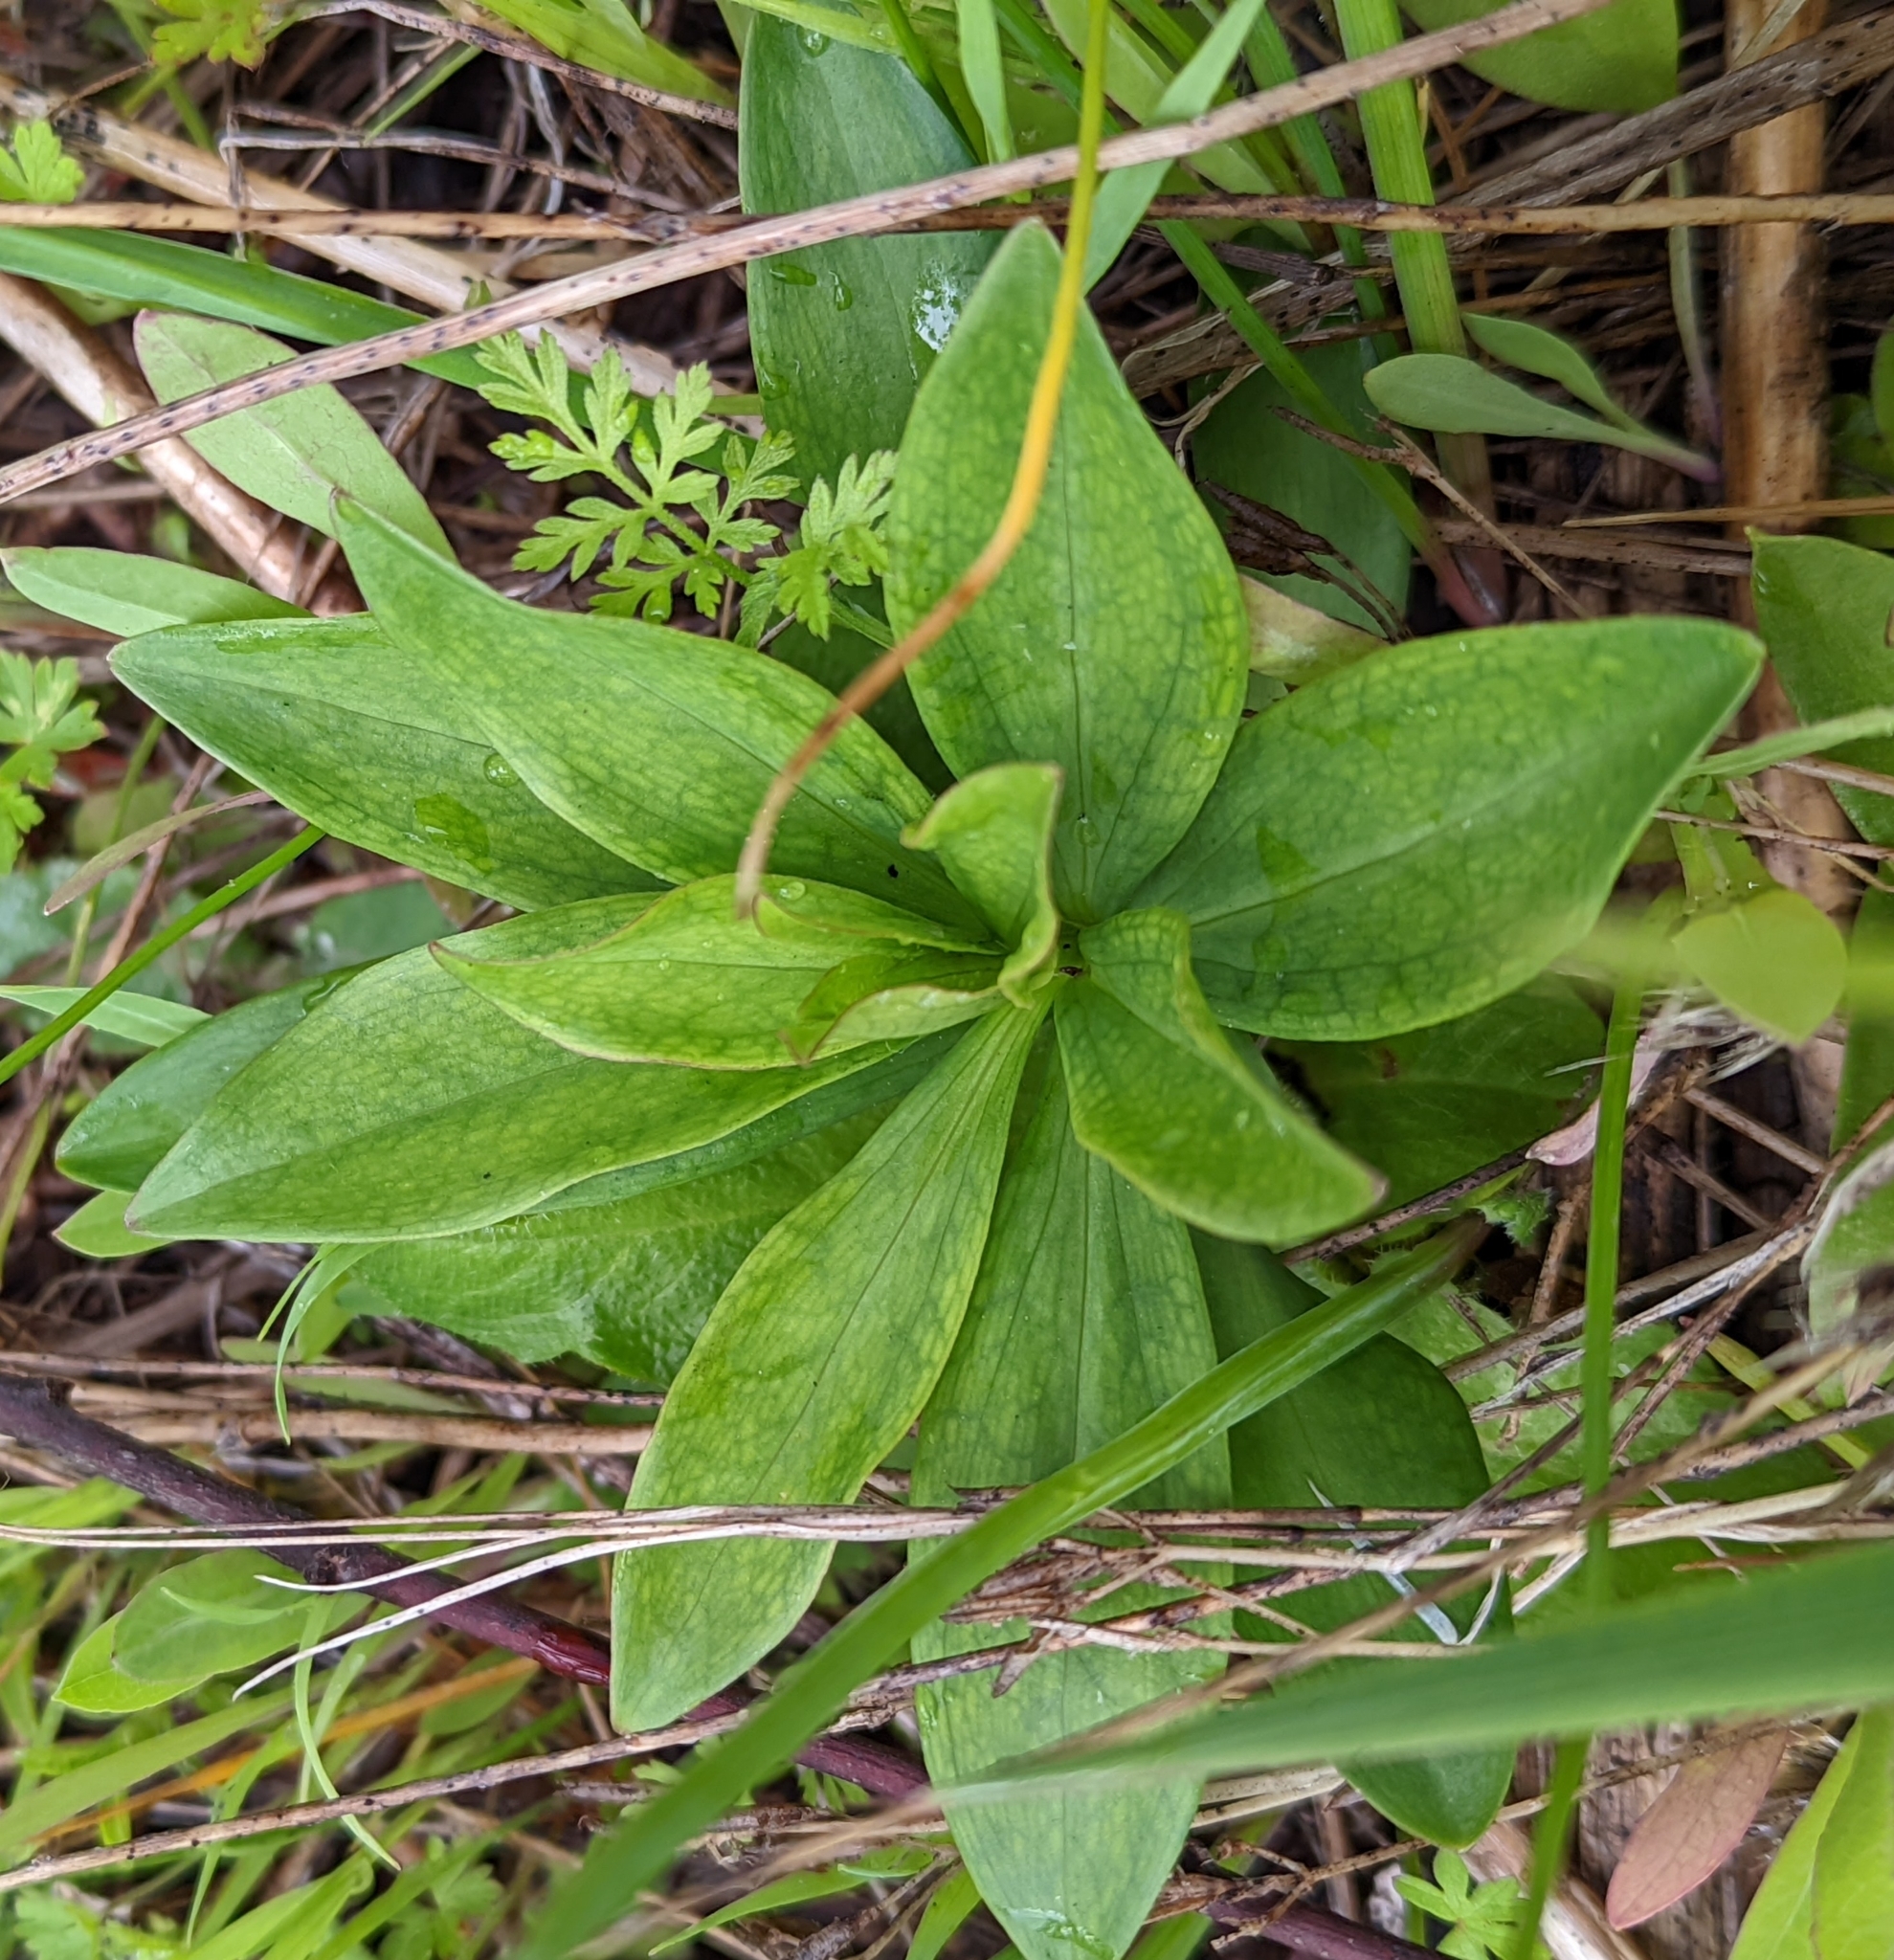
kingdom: Plantae
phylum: Tracheophyta
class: Liliopsida
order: Liliales
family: Liliaceae
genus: Lilium
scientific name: Lilium columbianum
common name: Columbia lily
